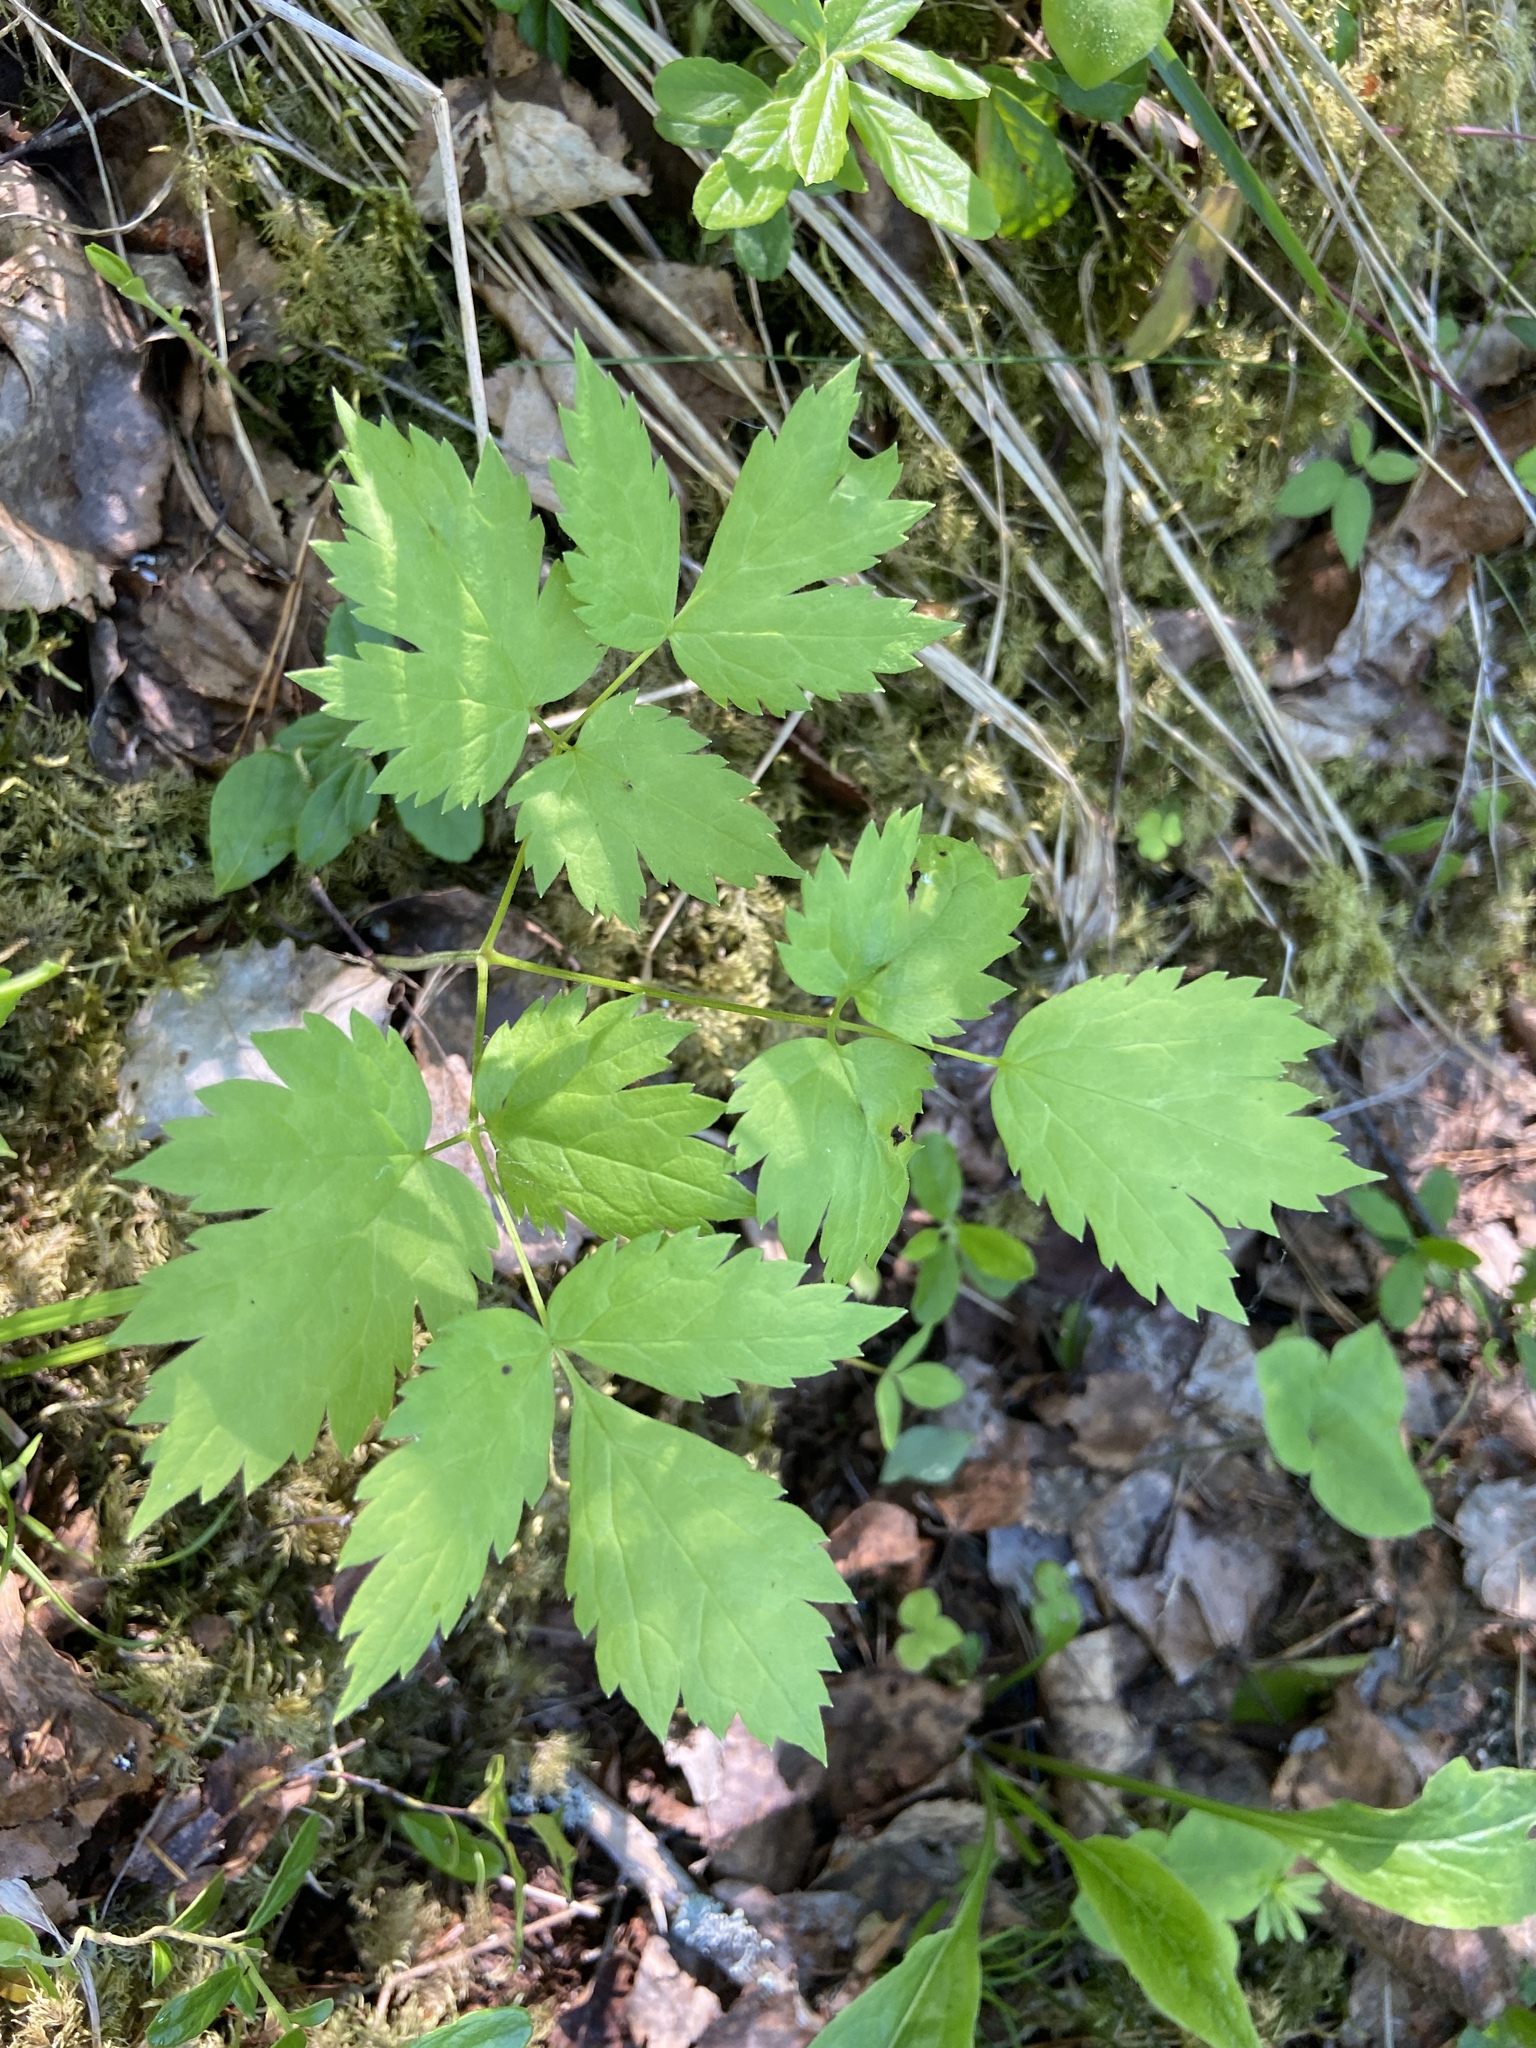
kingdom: Plantae
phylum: Tracheophyta
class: Magnoliopsida
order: Ranunculales
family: Ranunculaceae
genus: Actaea
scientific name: Actaea spicata
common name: Baneberry
